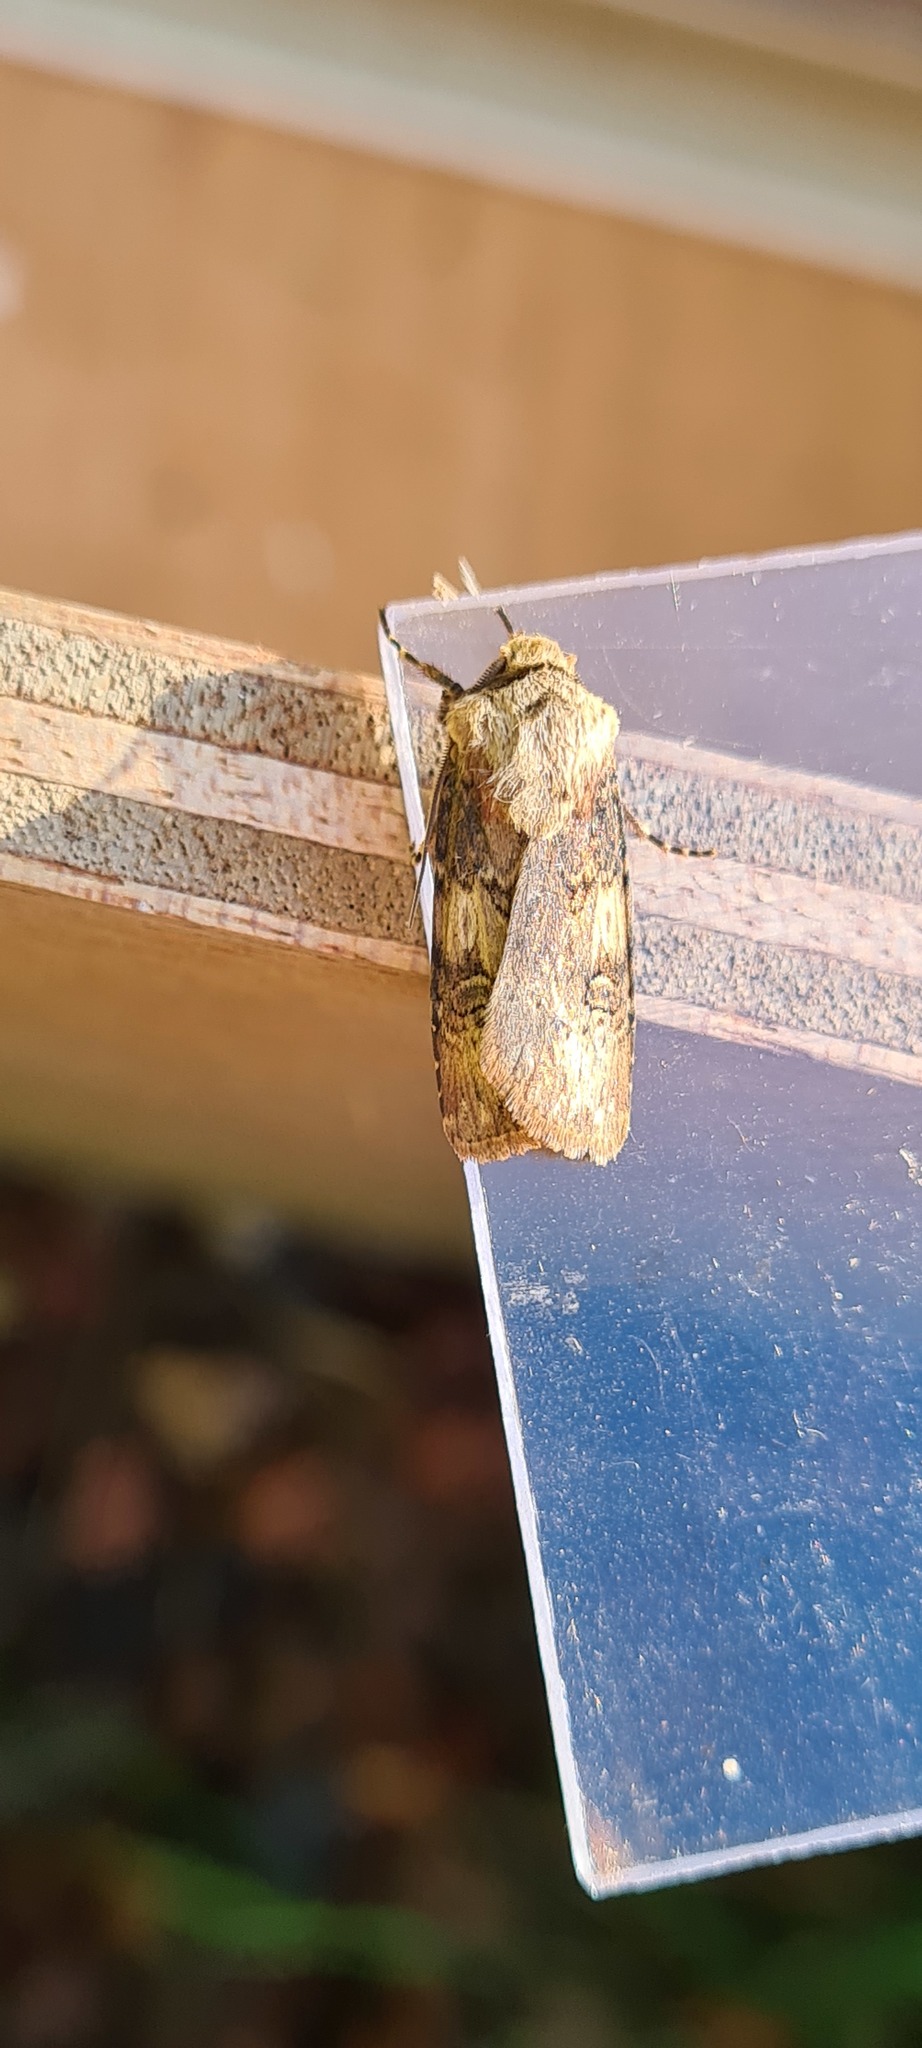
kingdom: Animalia
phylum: Arthropoda
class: Insecta
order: Lepidoptera
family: Noctuidae
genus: Agrotis
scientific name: Agrotis puta
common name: Shuttle-shaped dart
